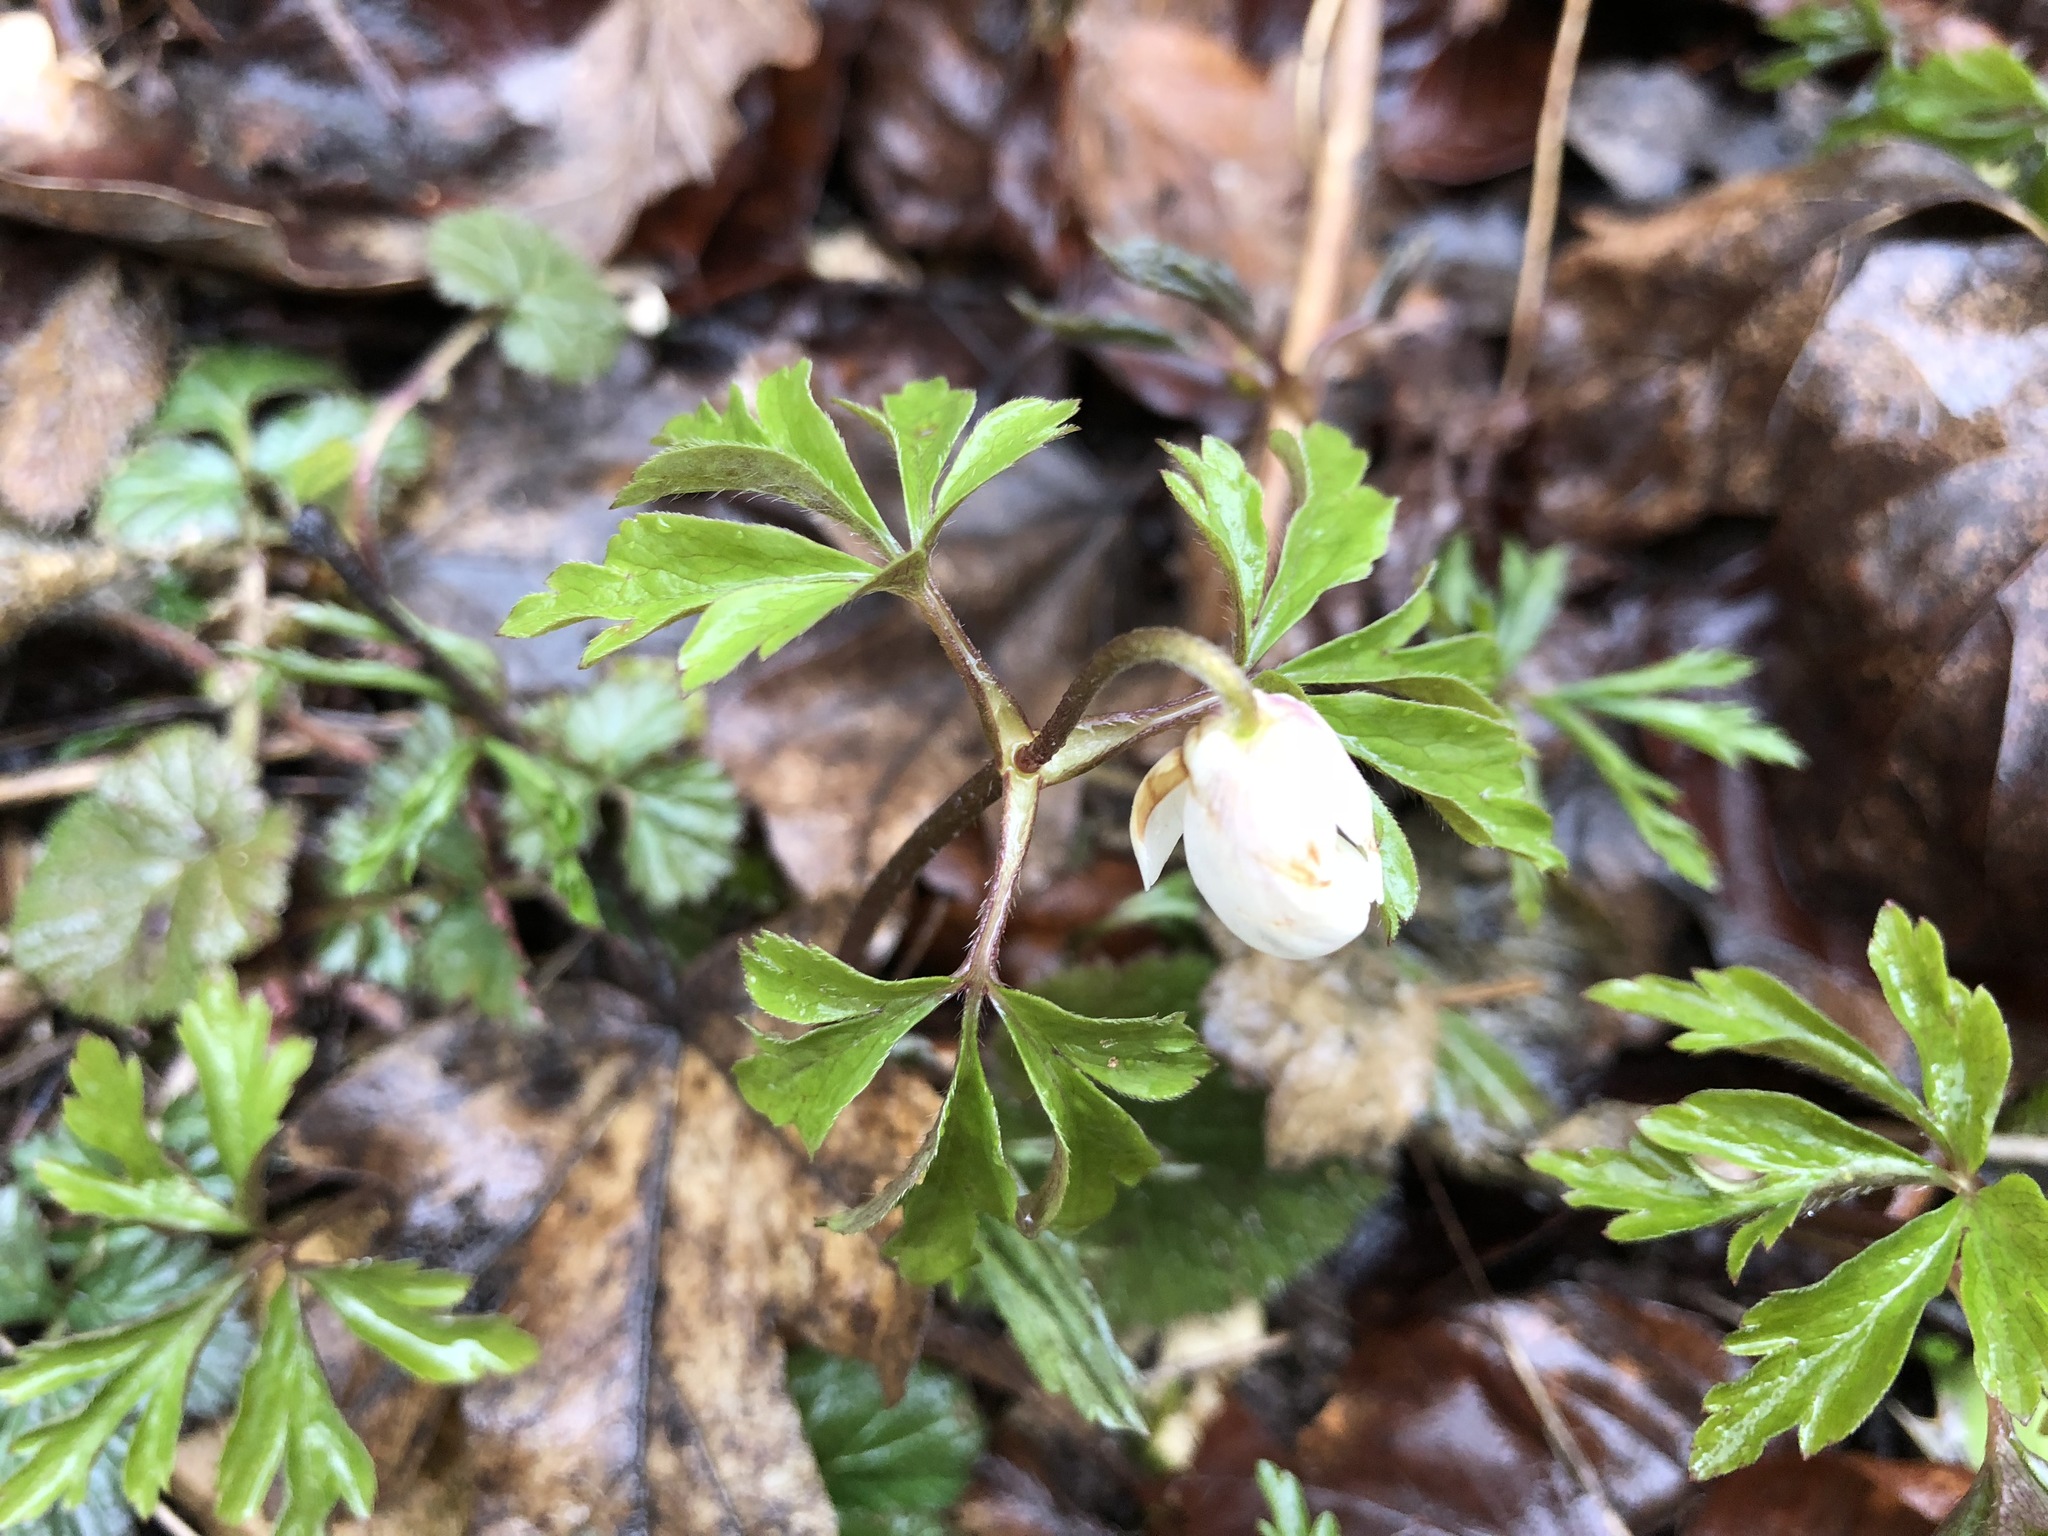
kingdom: Plantae
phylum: Tracheophyta
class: Magnoliopsida
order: Ranunculales
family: Ranunculaceae
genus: Anemone
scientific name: Anemone nemorosa
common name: Wood anemone
